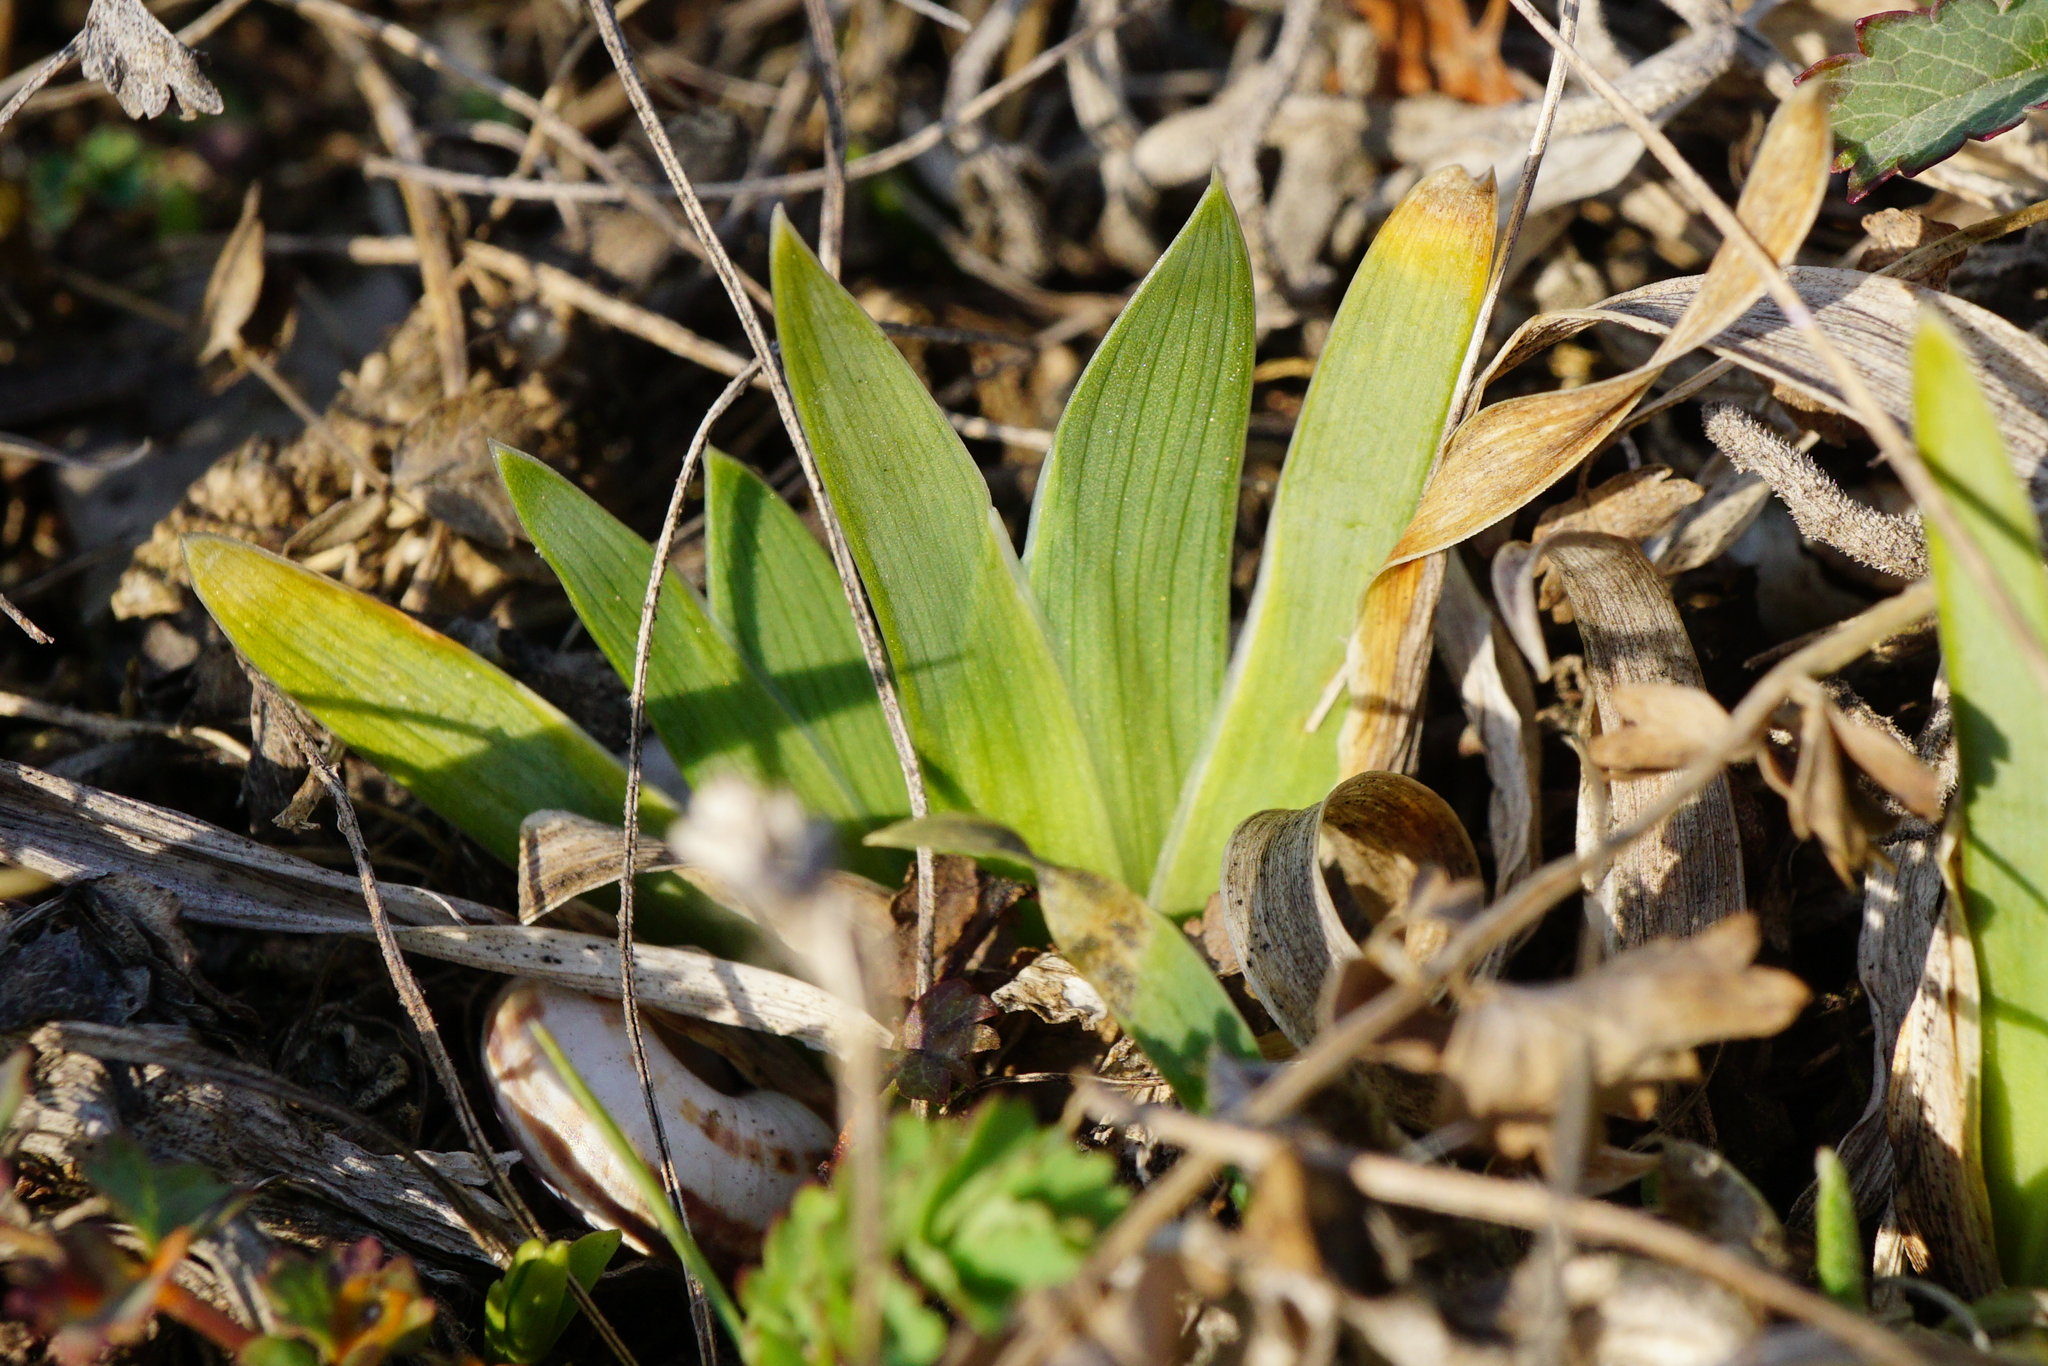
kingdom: Plantae
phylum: Tracheophyta
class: Liliopsida
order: Asparagales
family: Iridaceae
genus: Iris
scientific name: Iris pumila
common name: Dwarf iris
